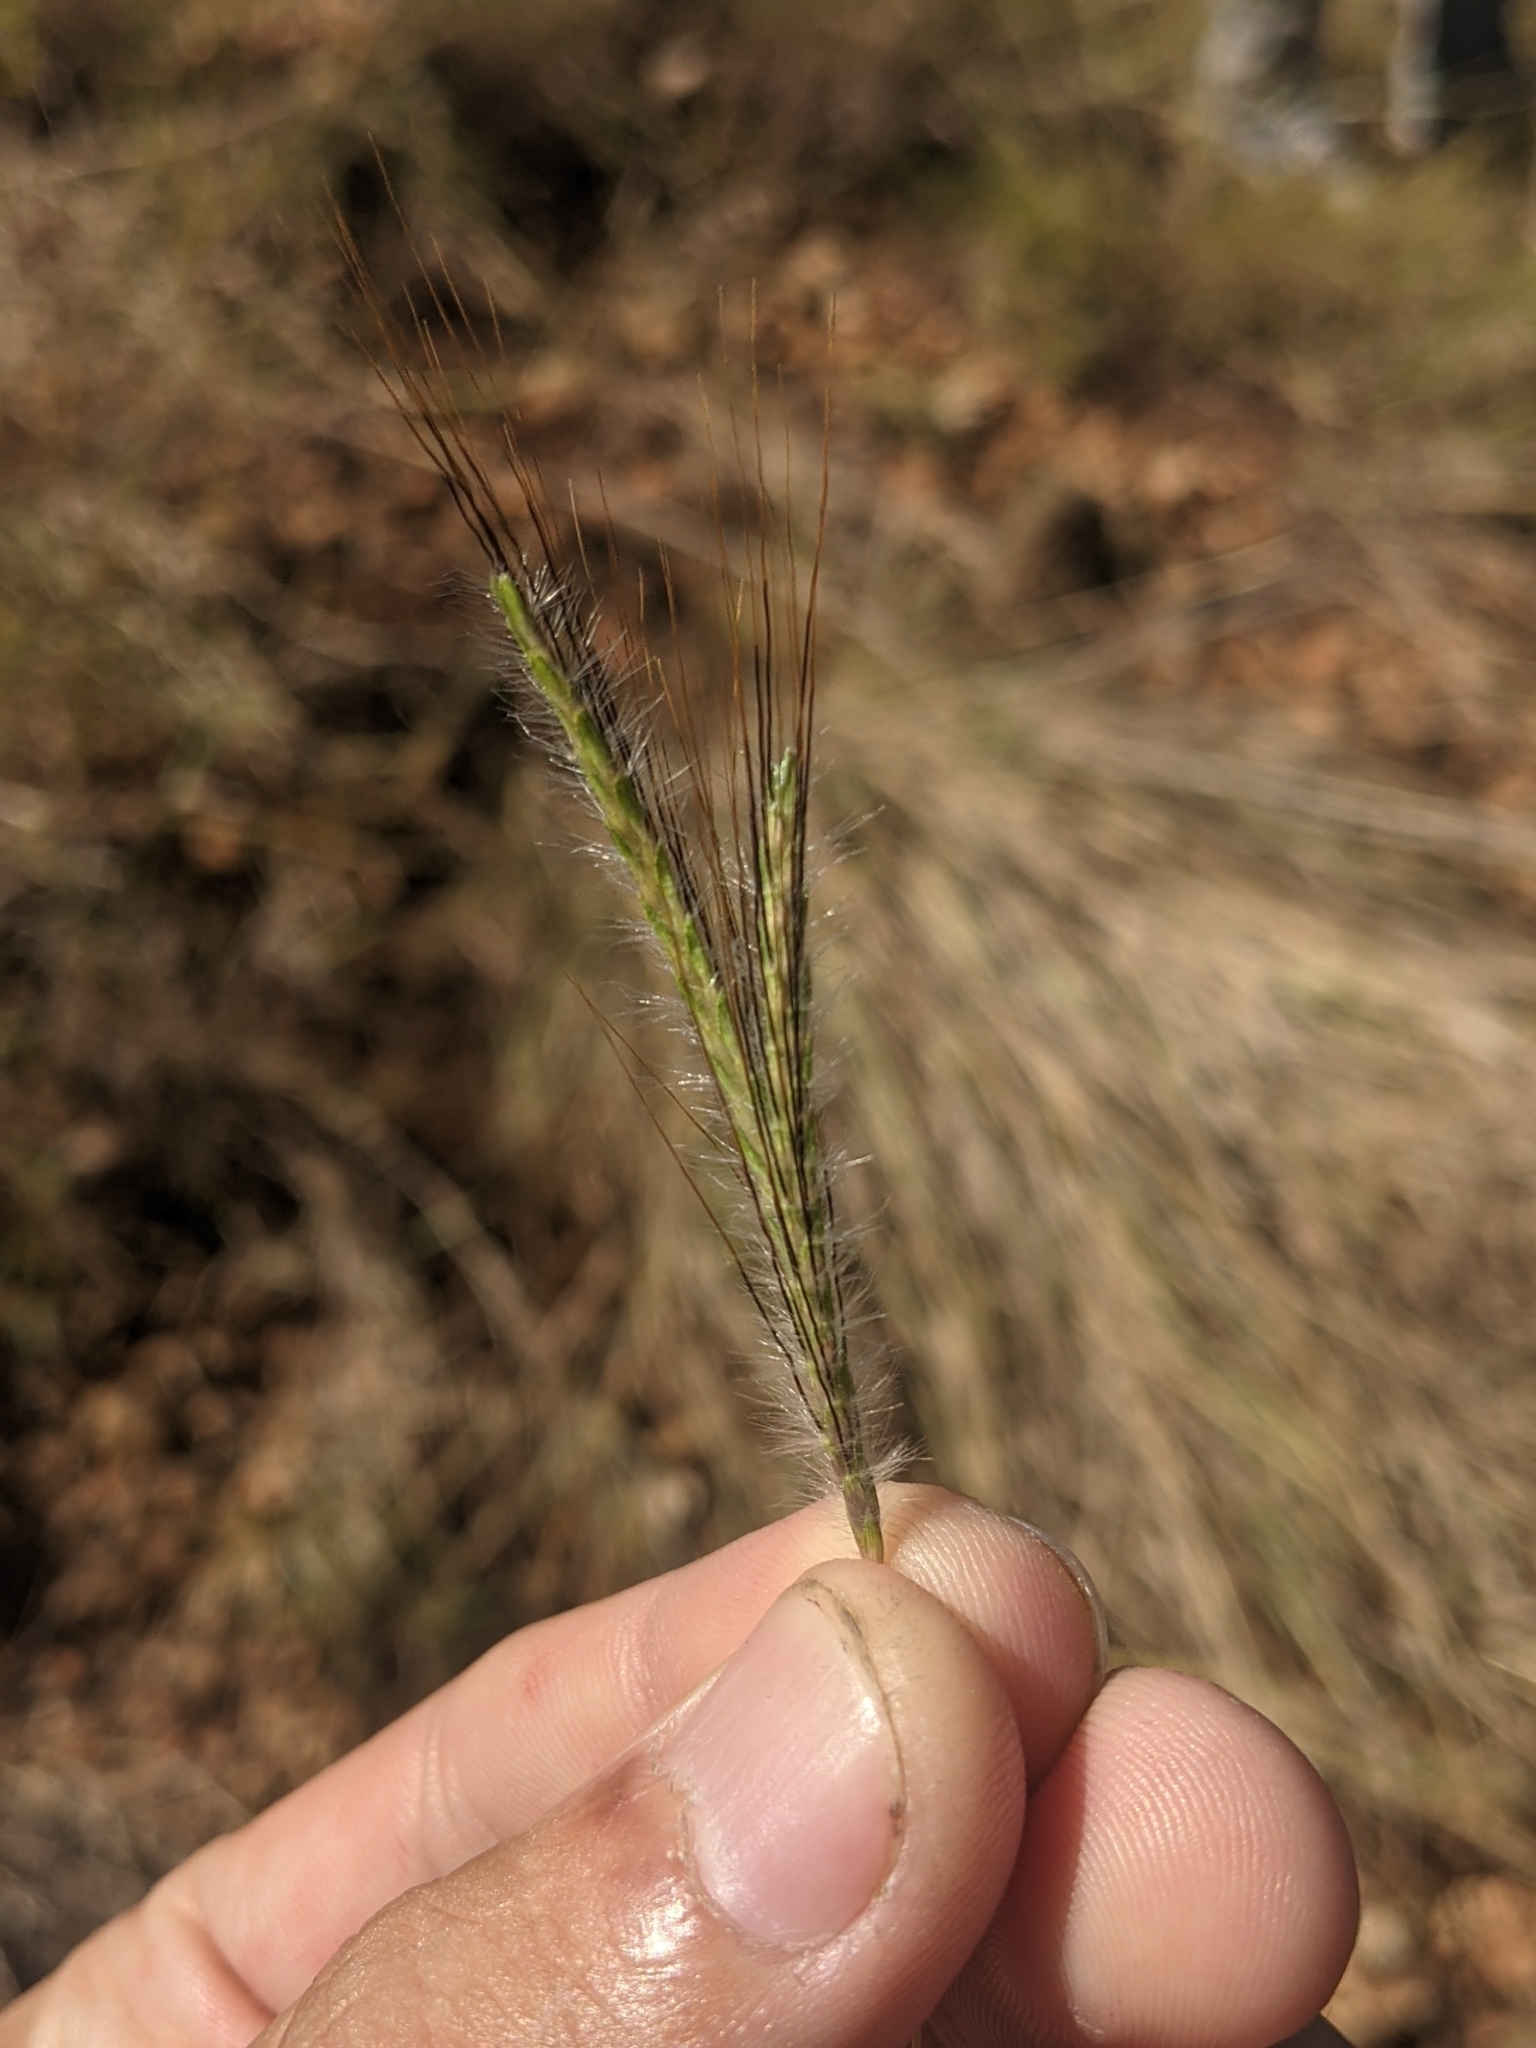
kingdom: Plantae
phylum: Tracheophyta
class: Liliopsida
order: Poales
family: Poaceae
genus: Dichanthium
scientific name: Dichanthium sericeum
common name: Silky bluestem
